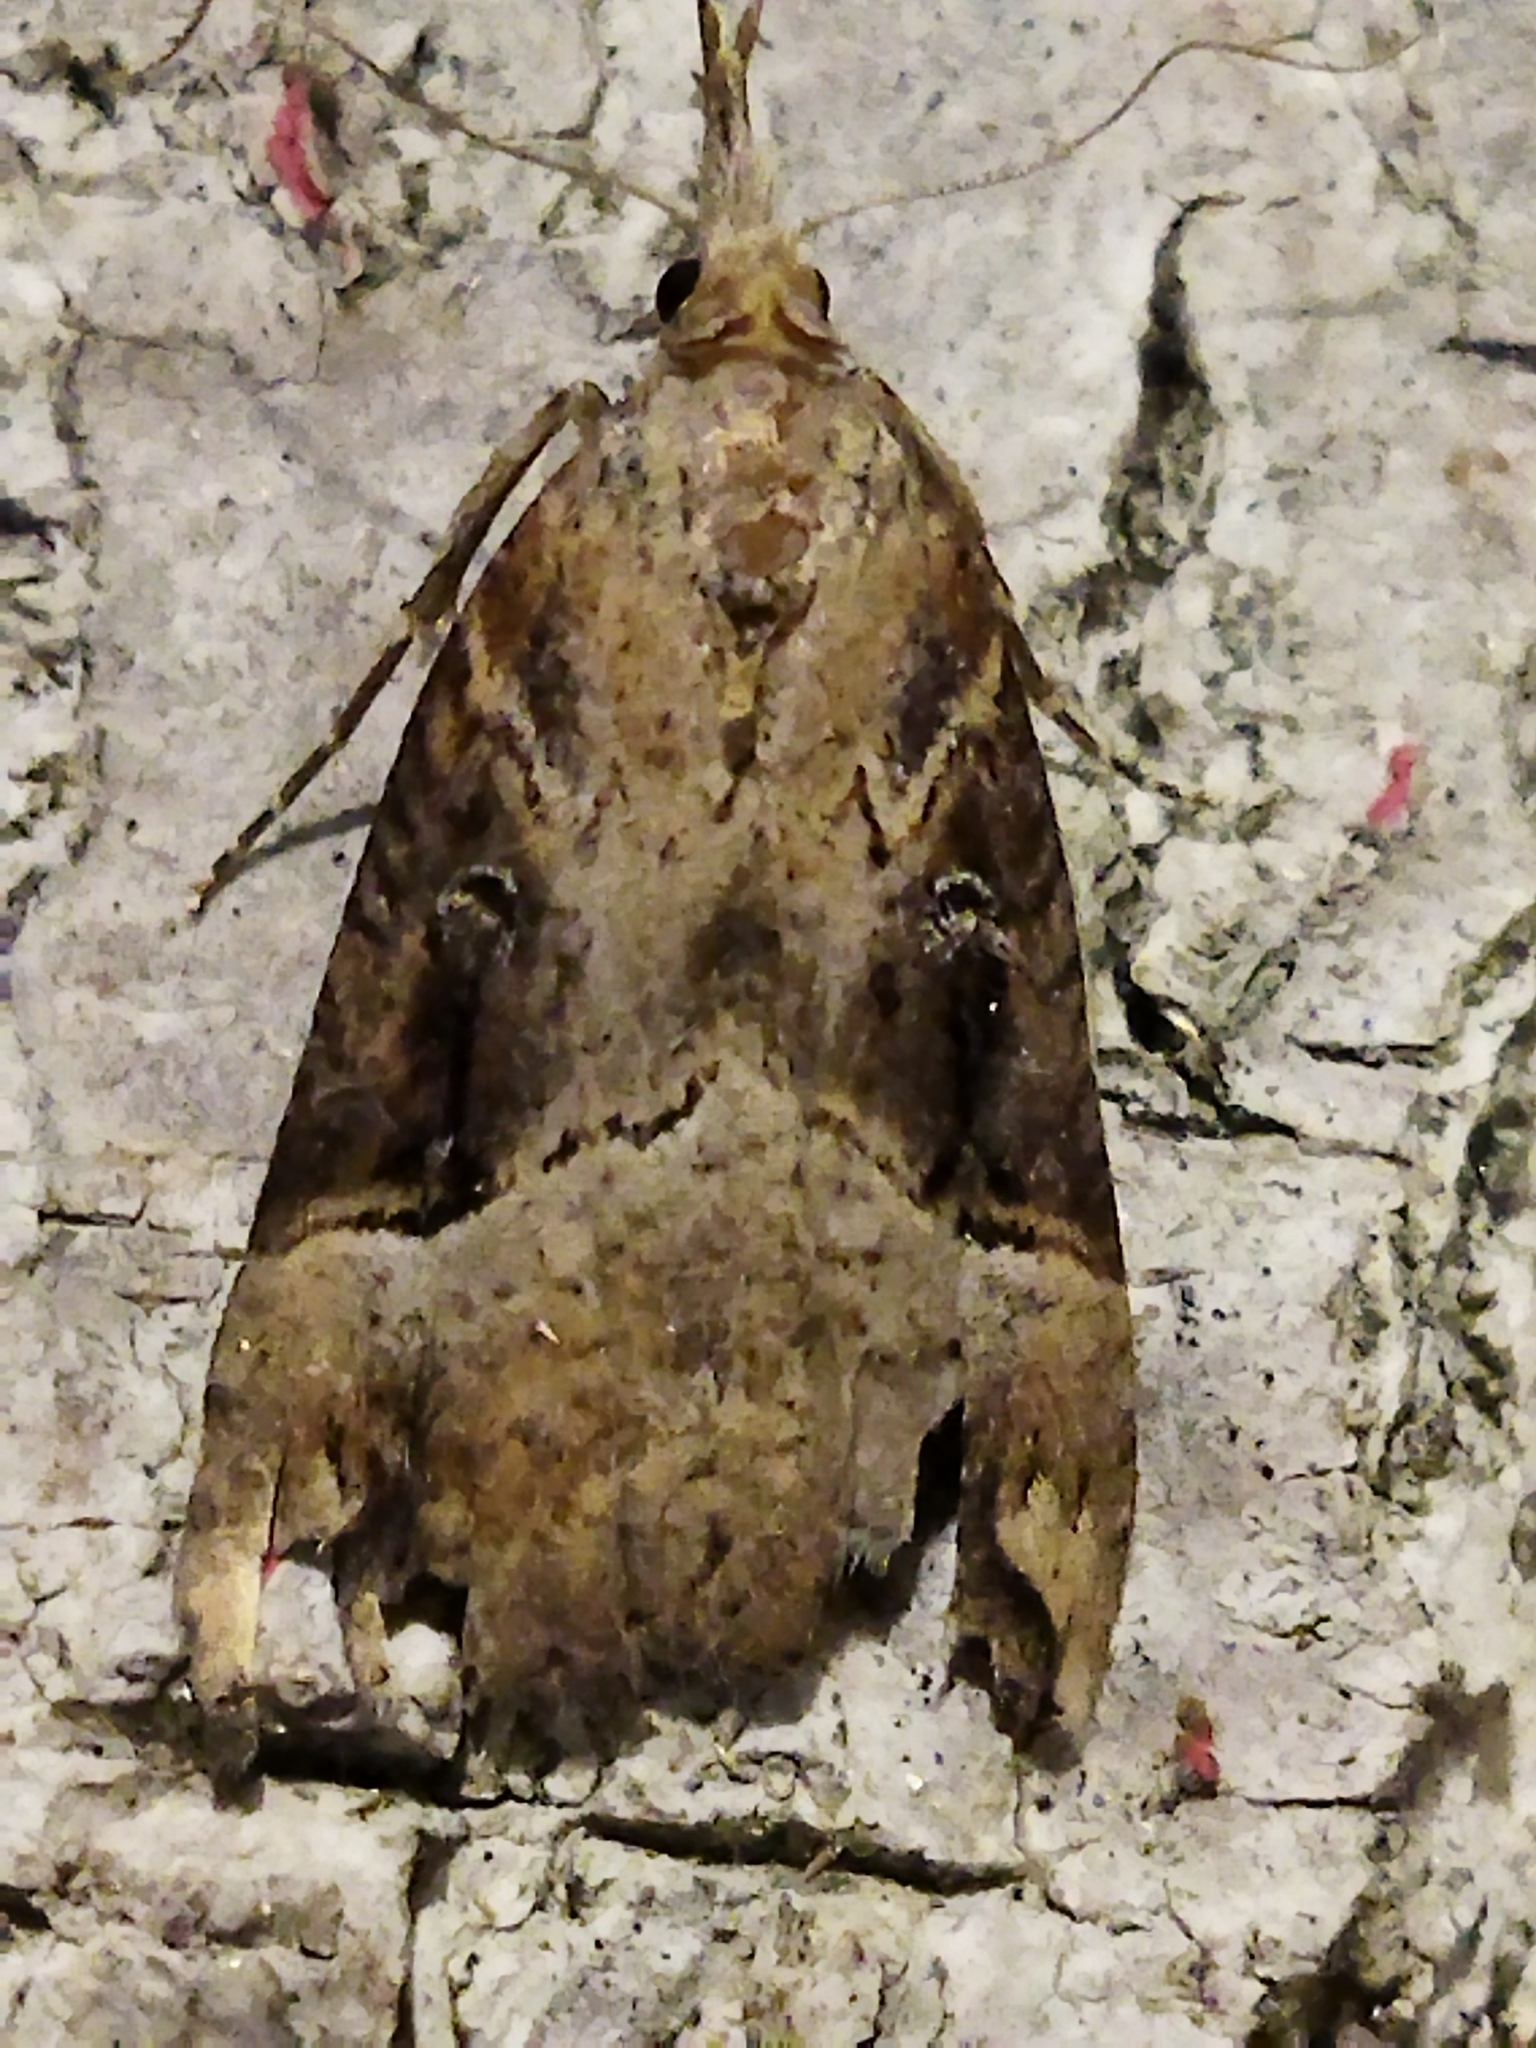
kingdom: Animalia
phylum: Arthropoda
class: Insecta
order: Lepidoptera
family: Erebidae
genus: Hypena
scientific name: Hypena rostralis
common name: Buttoned snout
